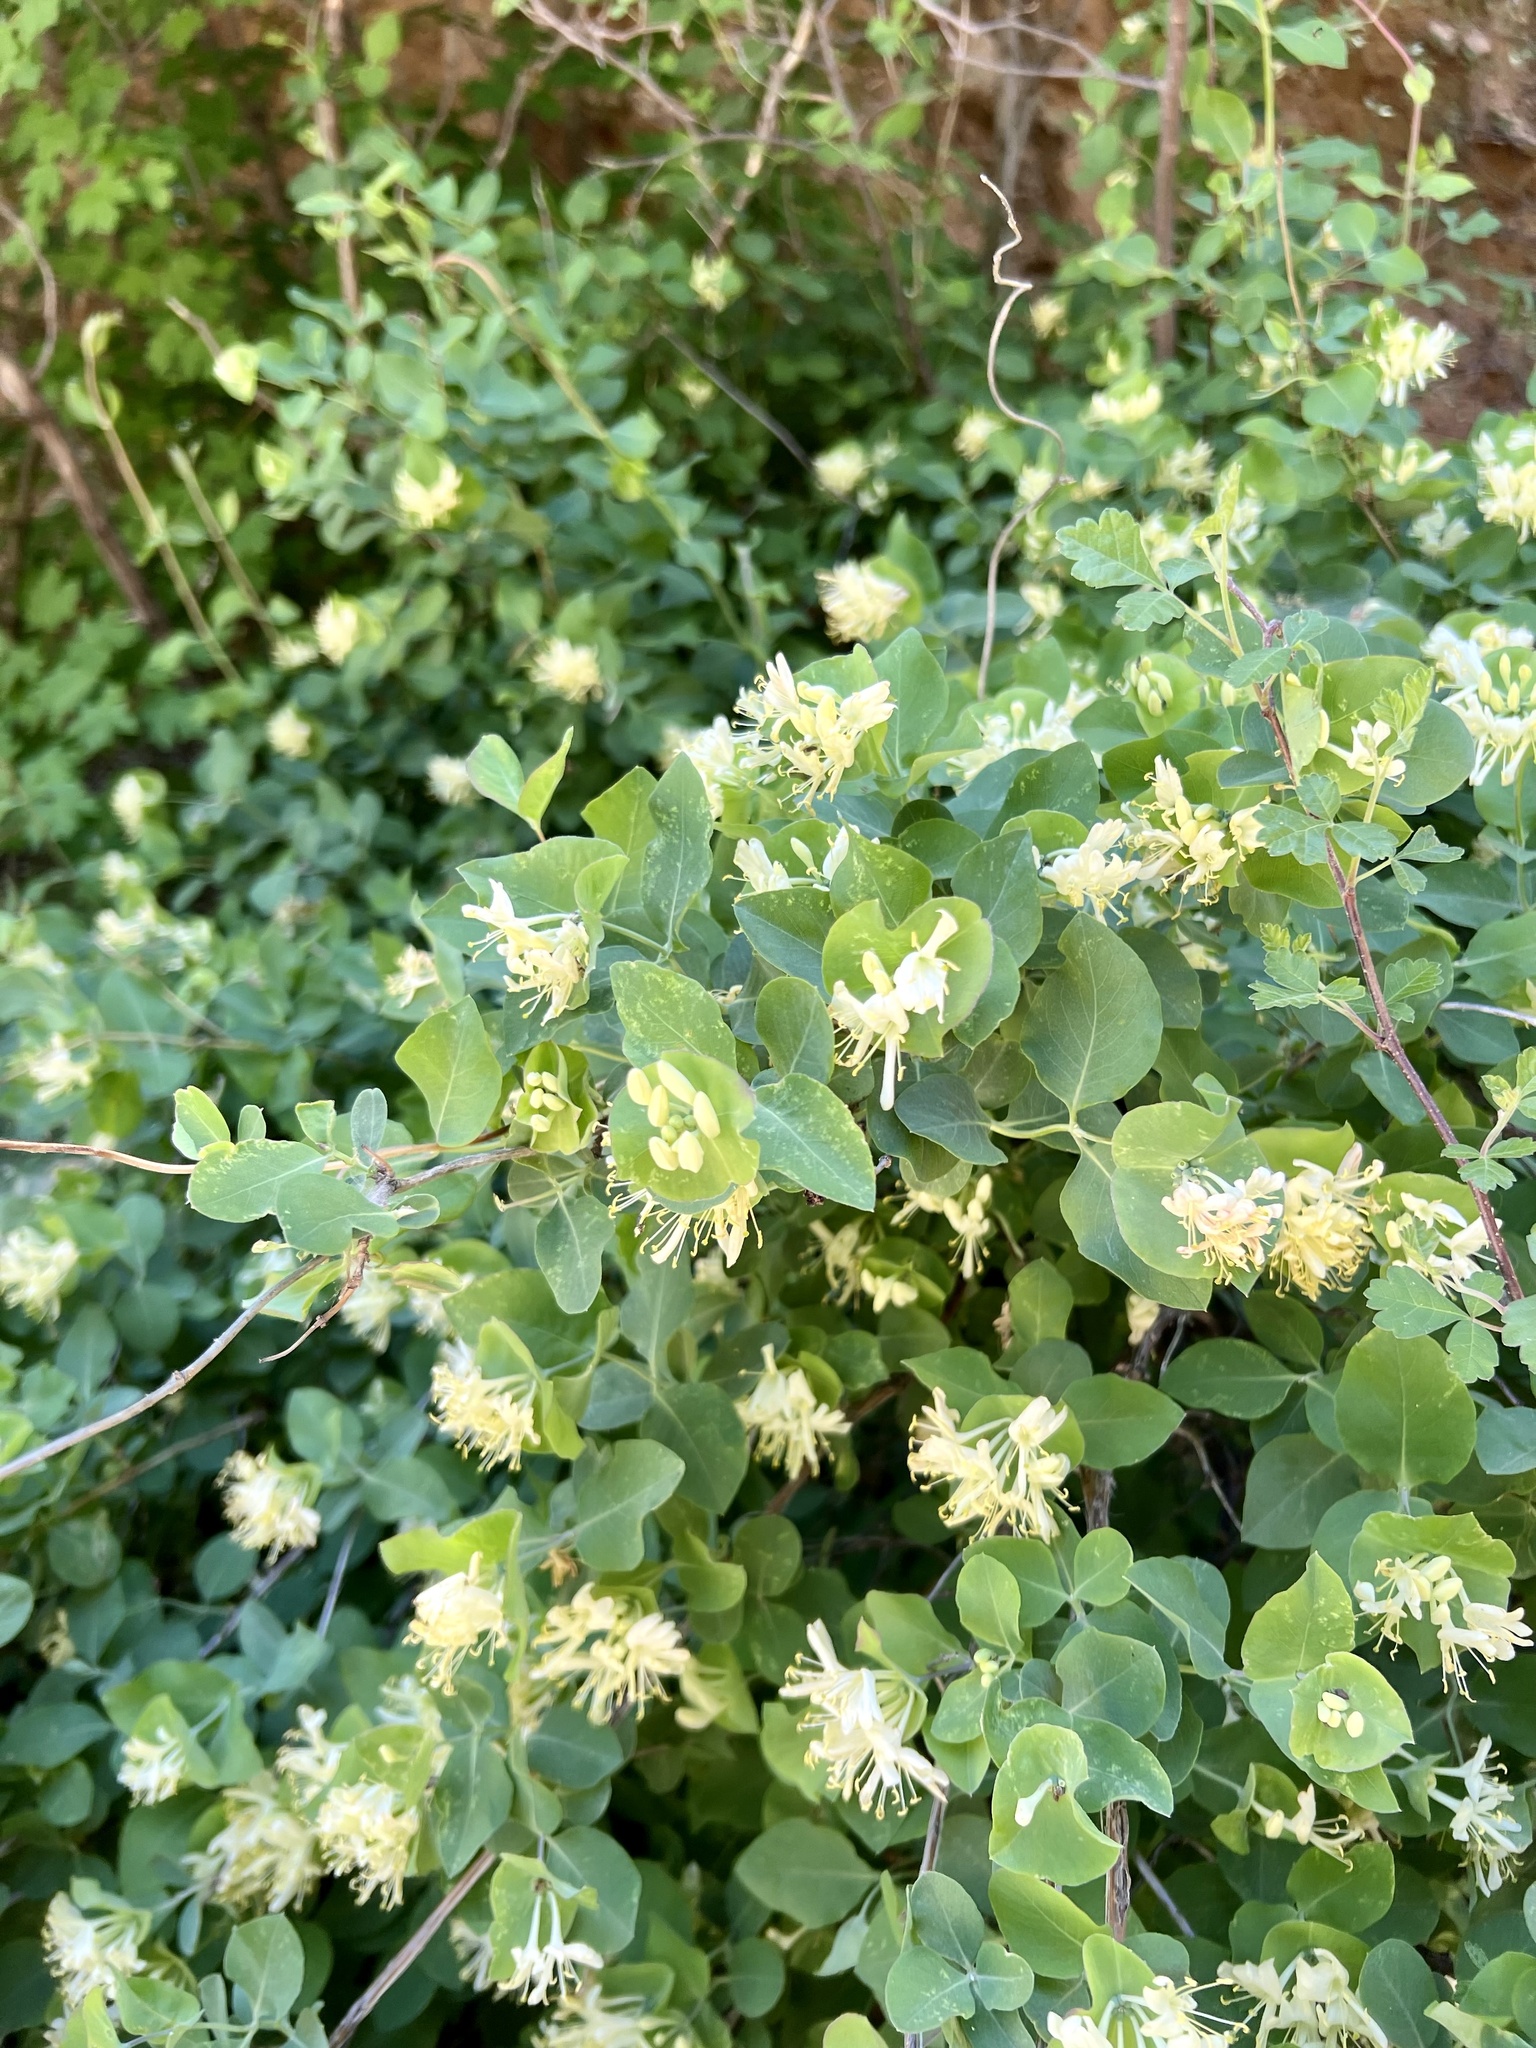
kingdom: Plantae
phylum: Tracheophyta
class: Magnoliopsida
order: Dipsacales
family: Caprifoliaceae
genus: Lonicera
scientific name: Lonicera albiflora
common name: White honeysuckle
